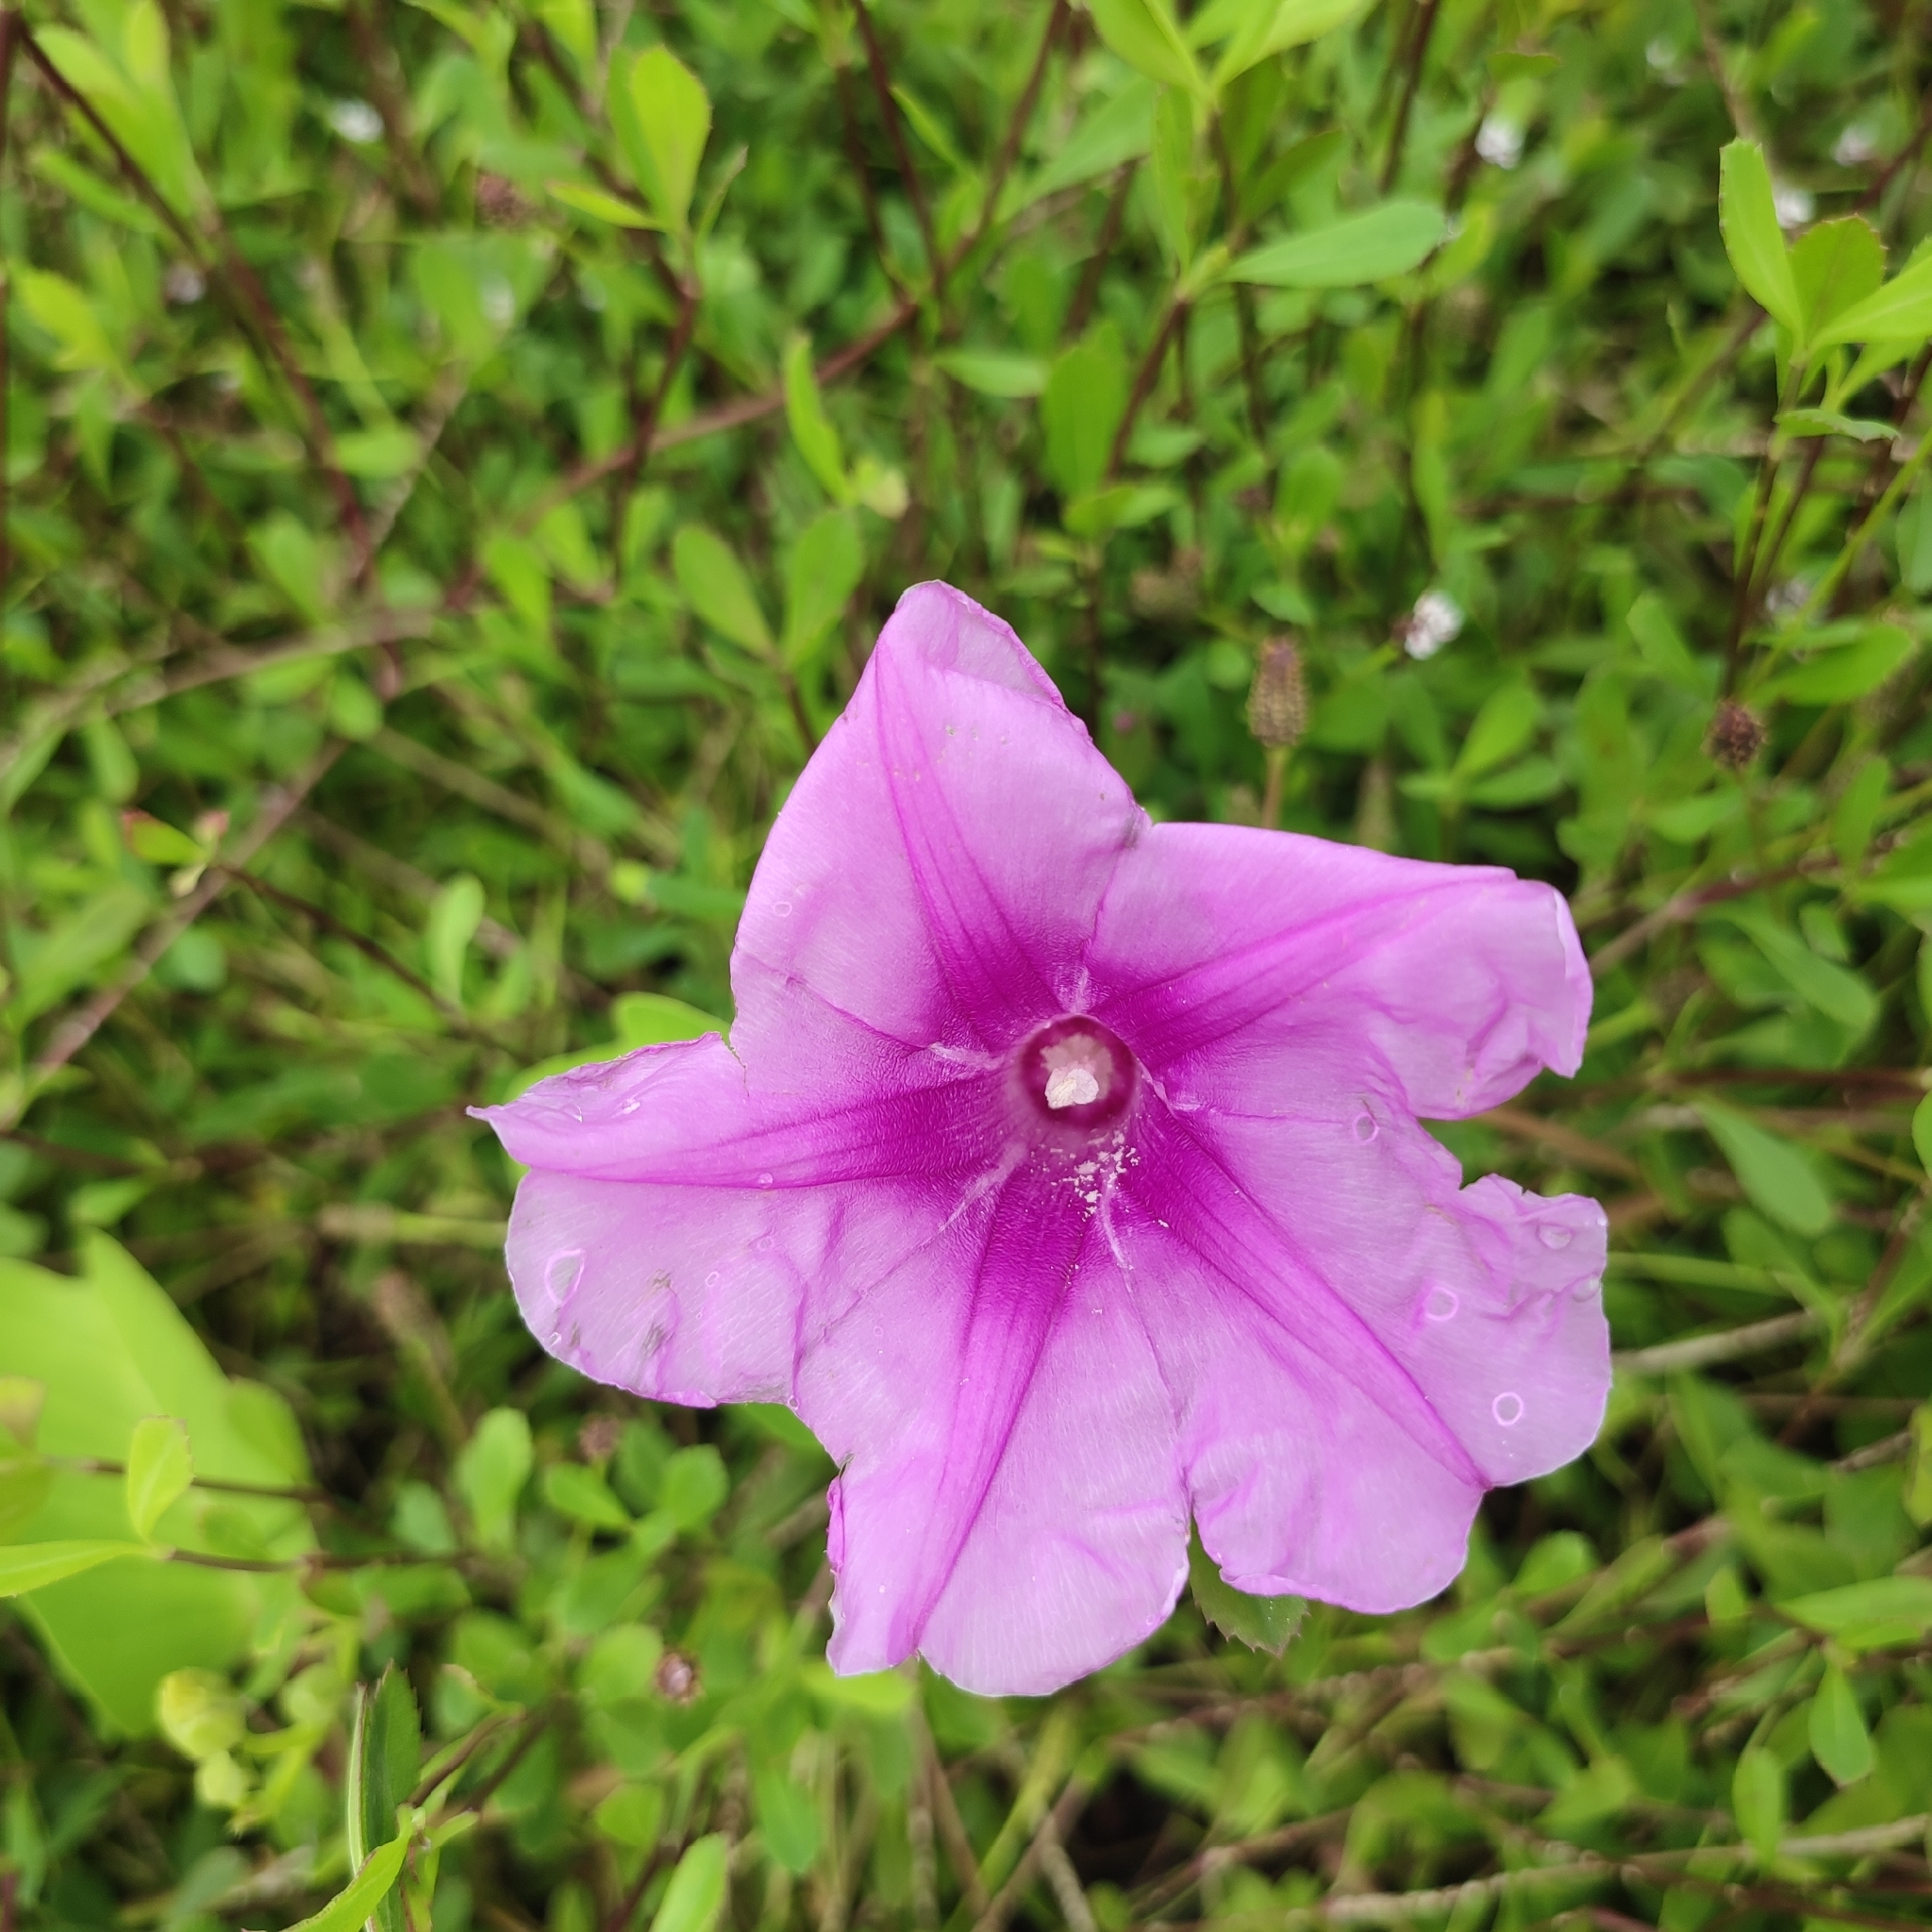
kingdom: Plantae
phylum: Tracheophyta
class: Magnoliopsida
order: Solanales
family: Convolvulaceae
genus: Ipomoea
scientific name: Ipomoea pes-caprae
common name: Beach morning glory
